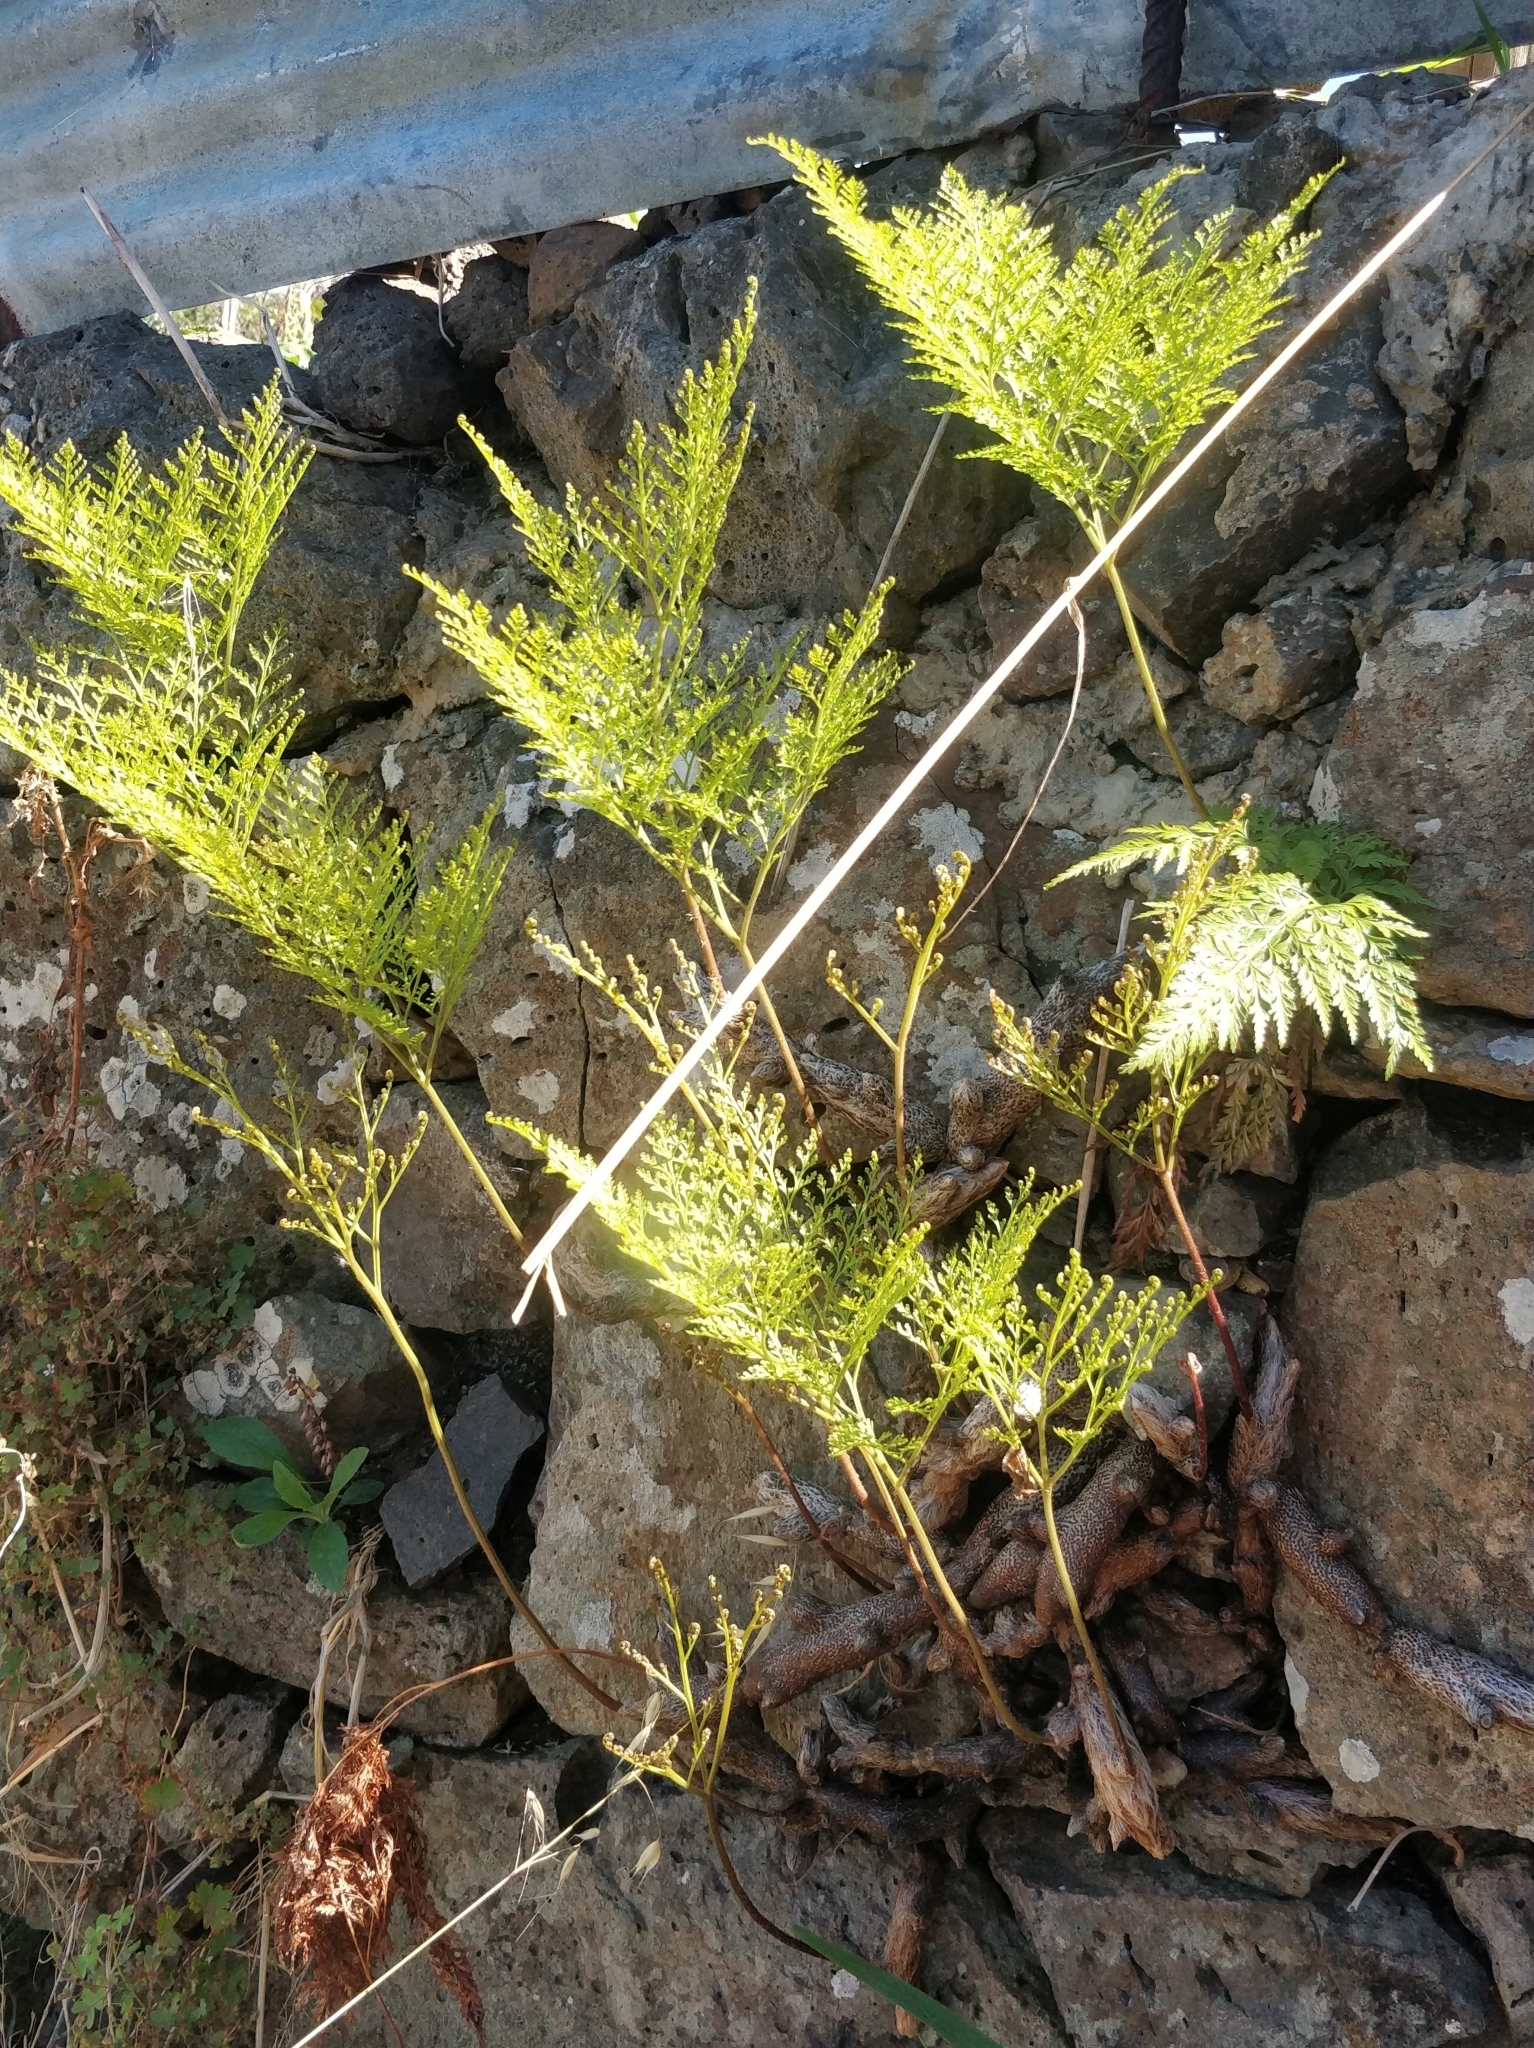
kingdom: Plantae
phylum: Tracheophyta
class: Polypodiopsida
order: Polypodiales
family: Davalliaceae
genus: Davallia
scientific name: Davallia canariensis
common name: Hare's-foot fern
